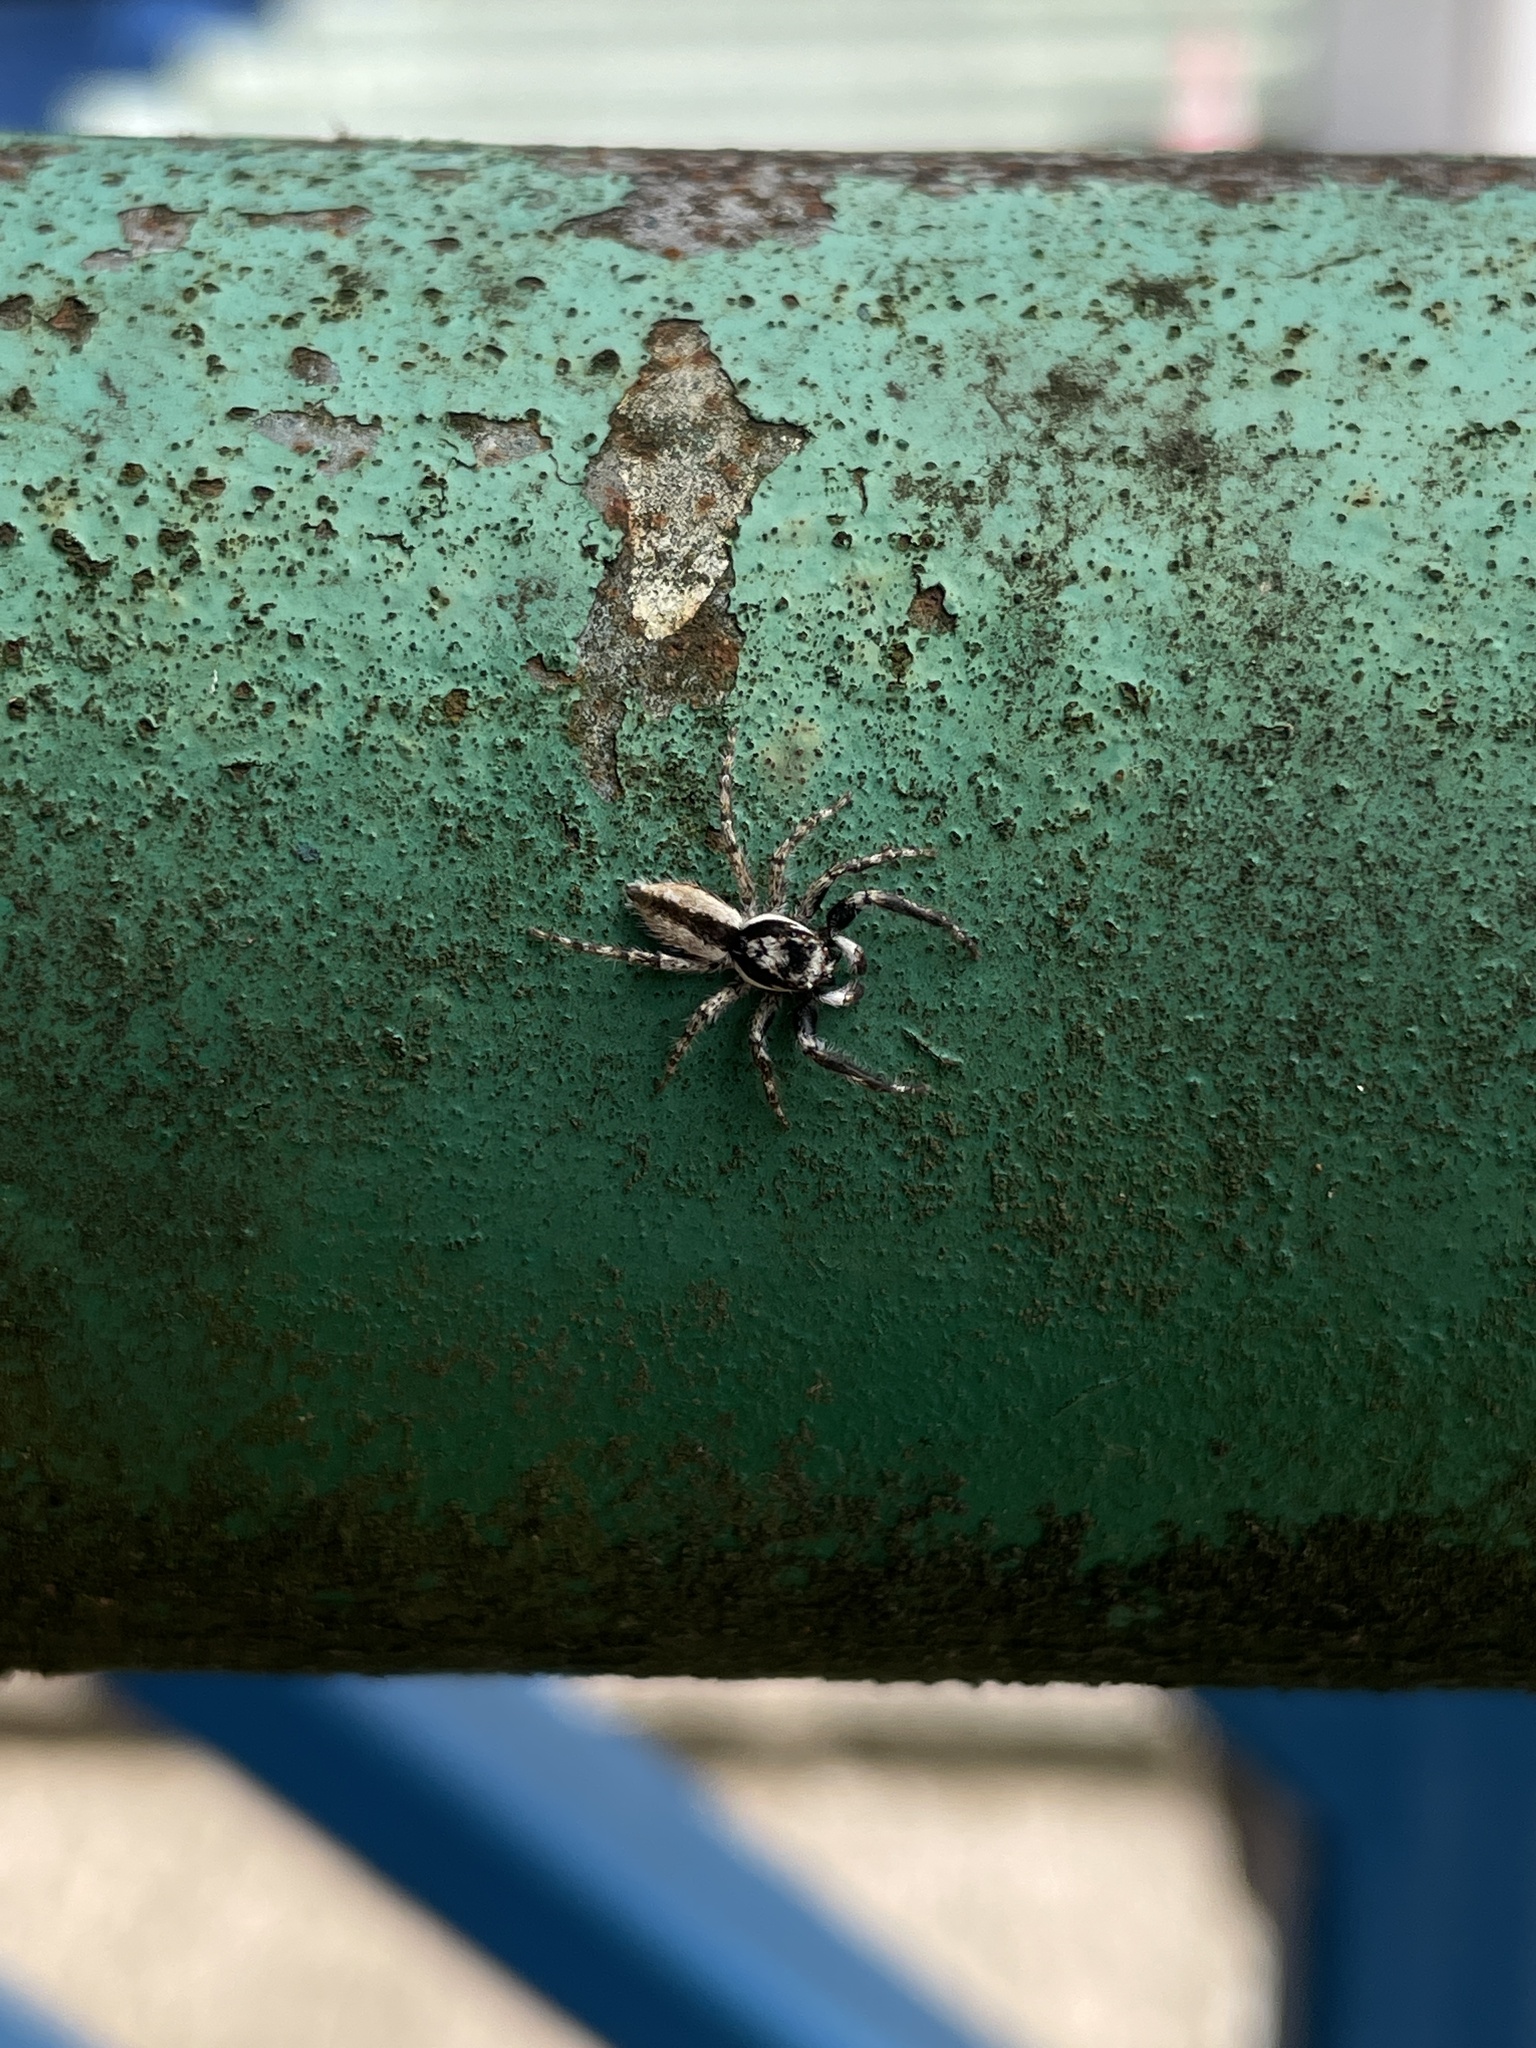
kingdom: Animalia
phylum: Arthropoda
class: Arachnida
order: Araneae
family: Salticidae
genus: Menemerus
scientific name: Menemerus bivittatus
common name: Gray wall jumper
